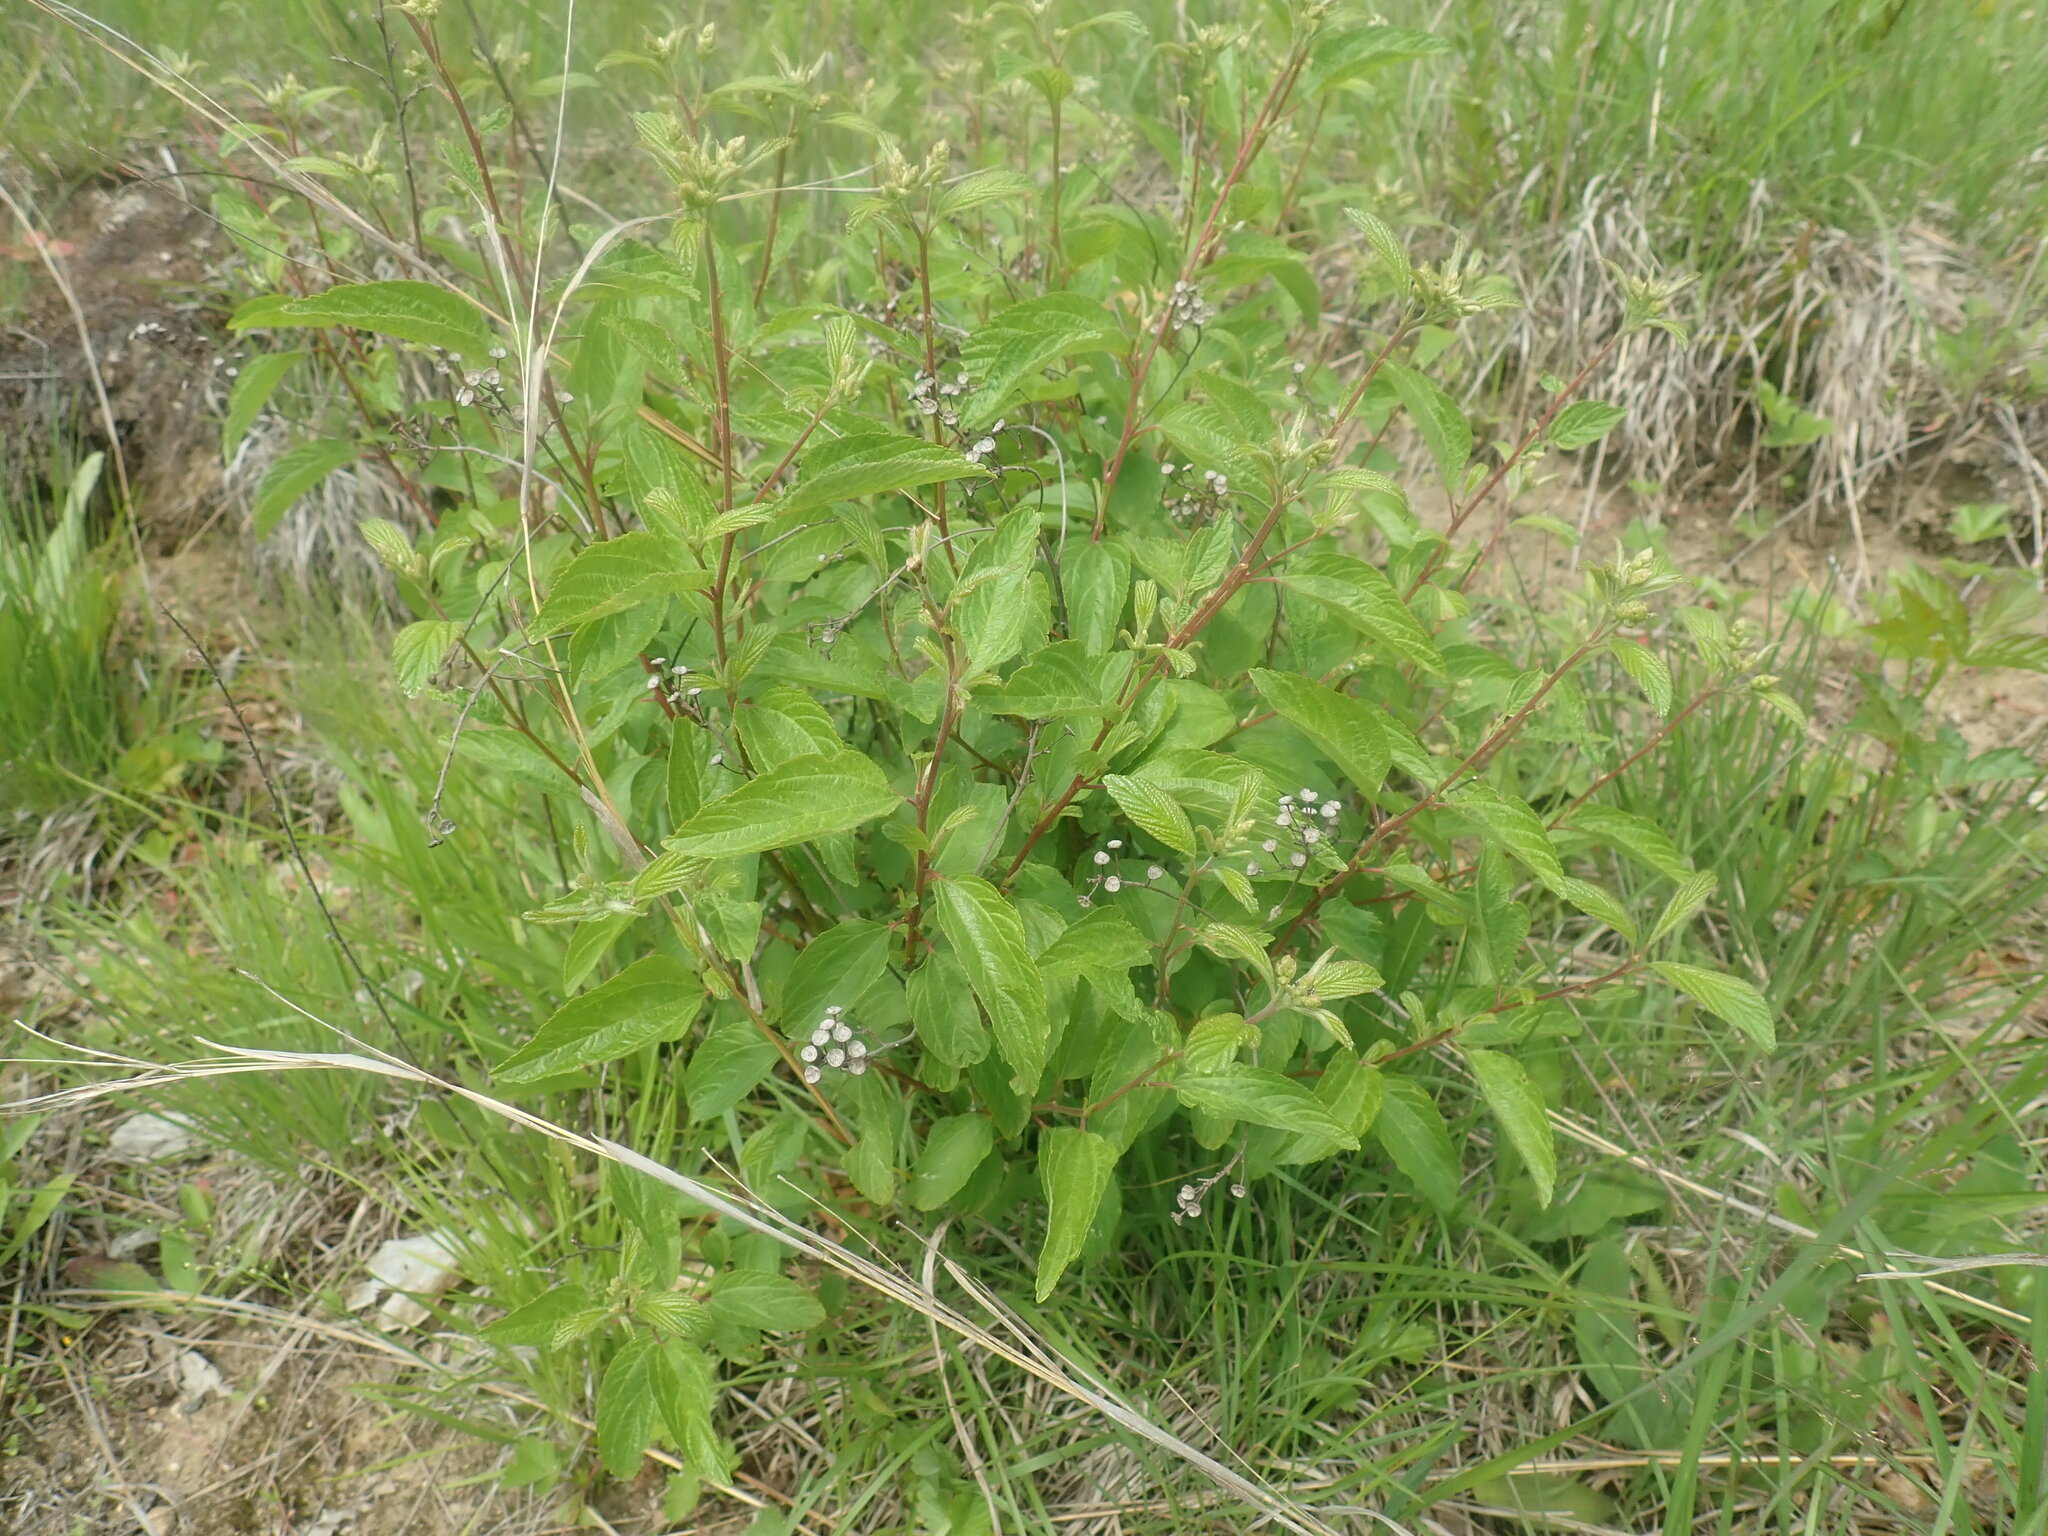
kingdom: Plantae
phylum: Tracheophyta
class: Magnoliopsida
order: Rosales
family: Rhamnaceae
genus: Ceanothus
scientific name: Ceanothus americanus
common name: Redroot
